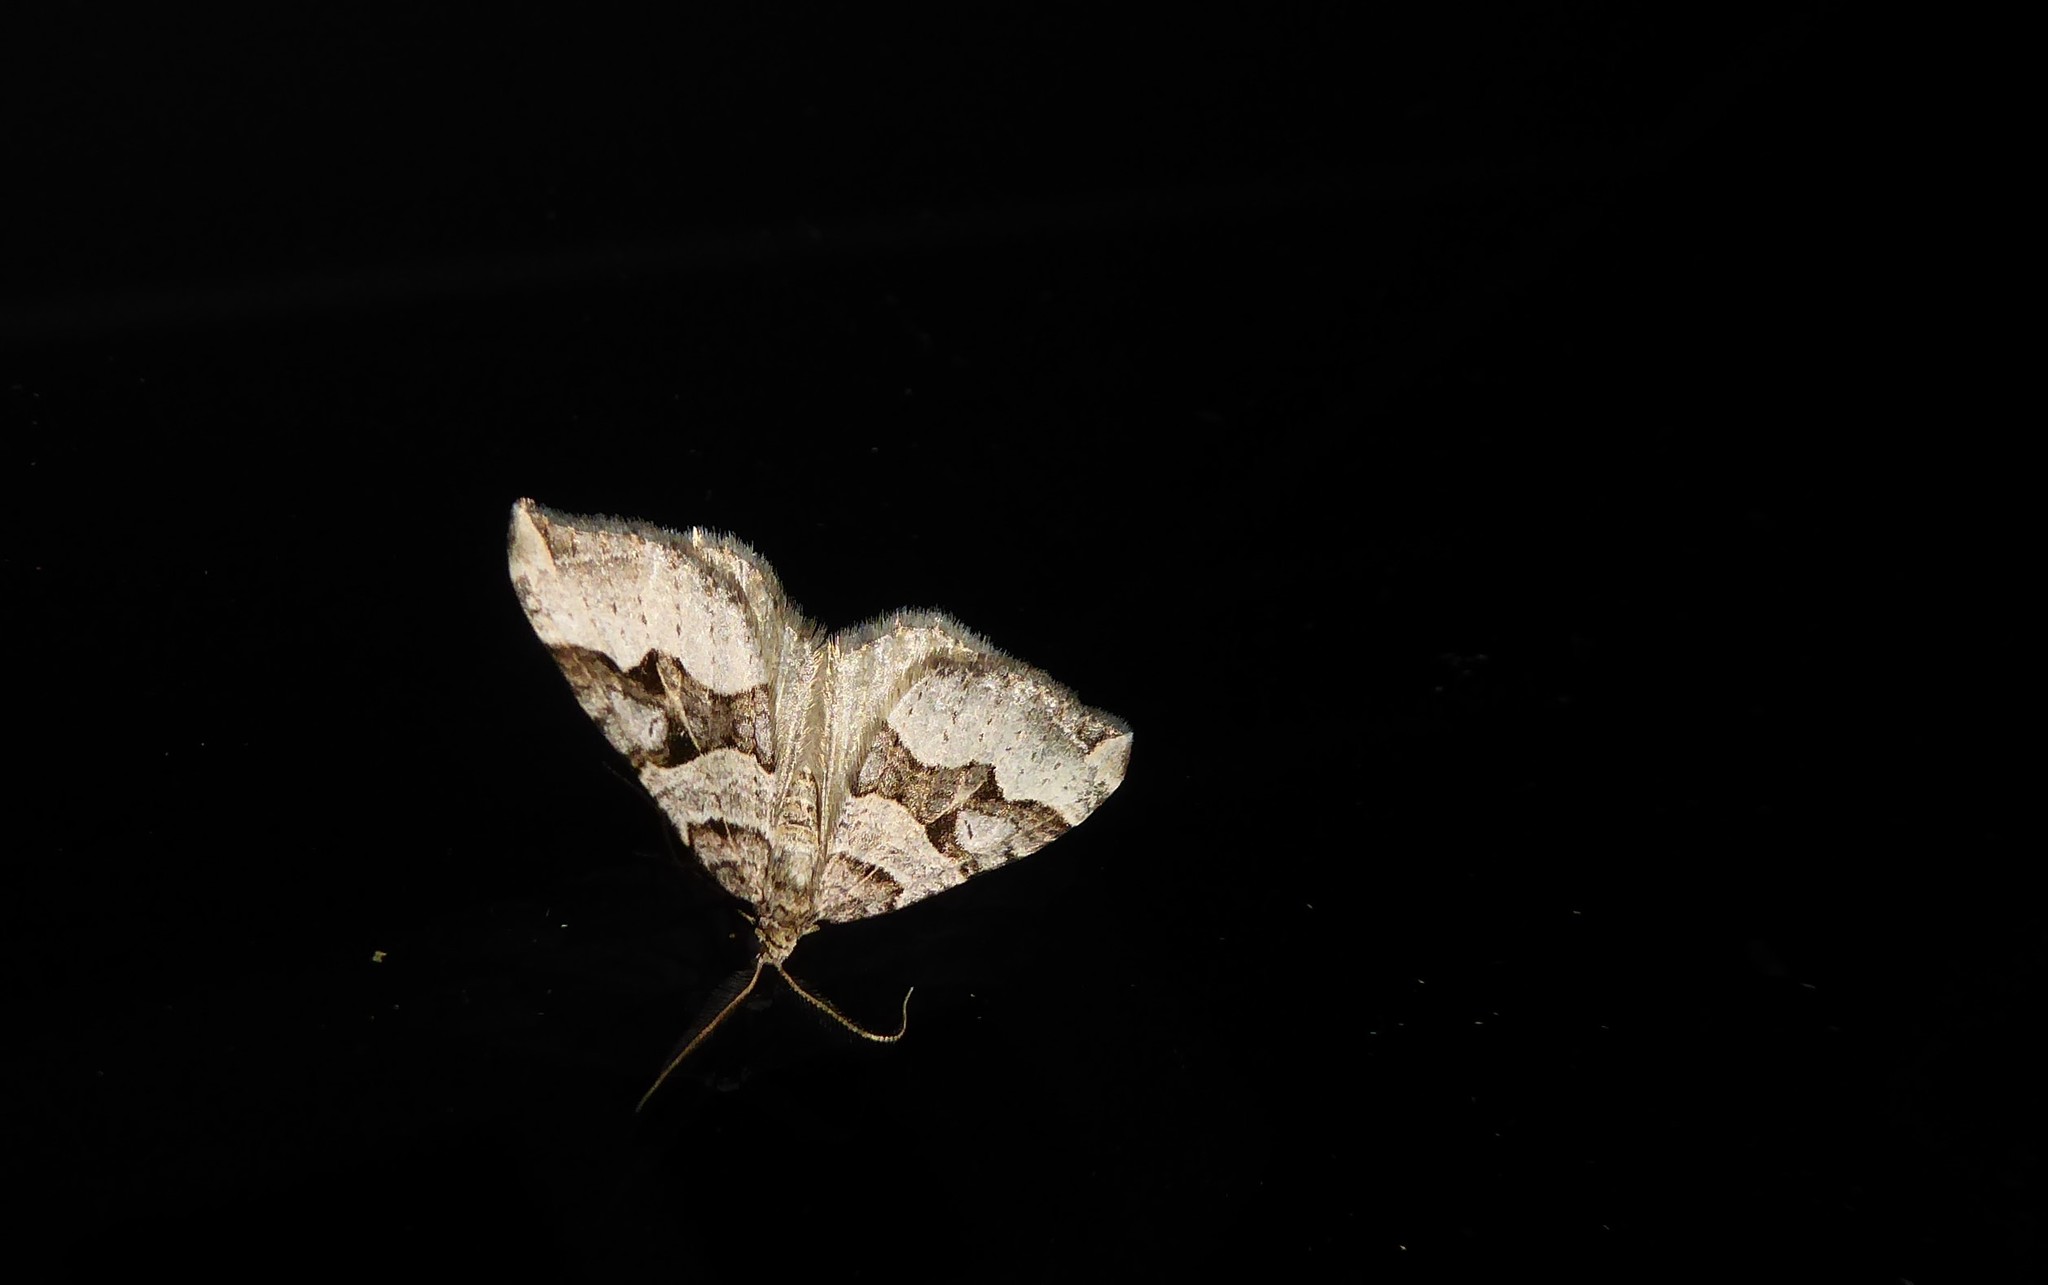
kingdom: Animalia
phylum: Arthropoda
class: Insecta
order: Lepidoptera
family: Geometridae
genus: Xanthorhoe
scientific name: Xanthorhoe semifissata
